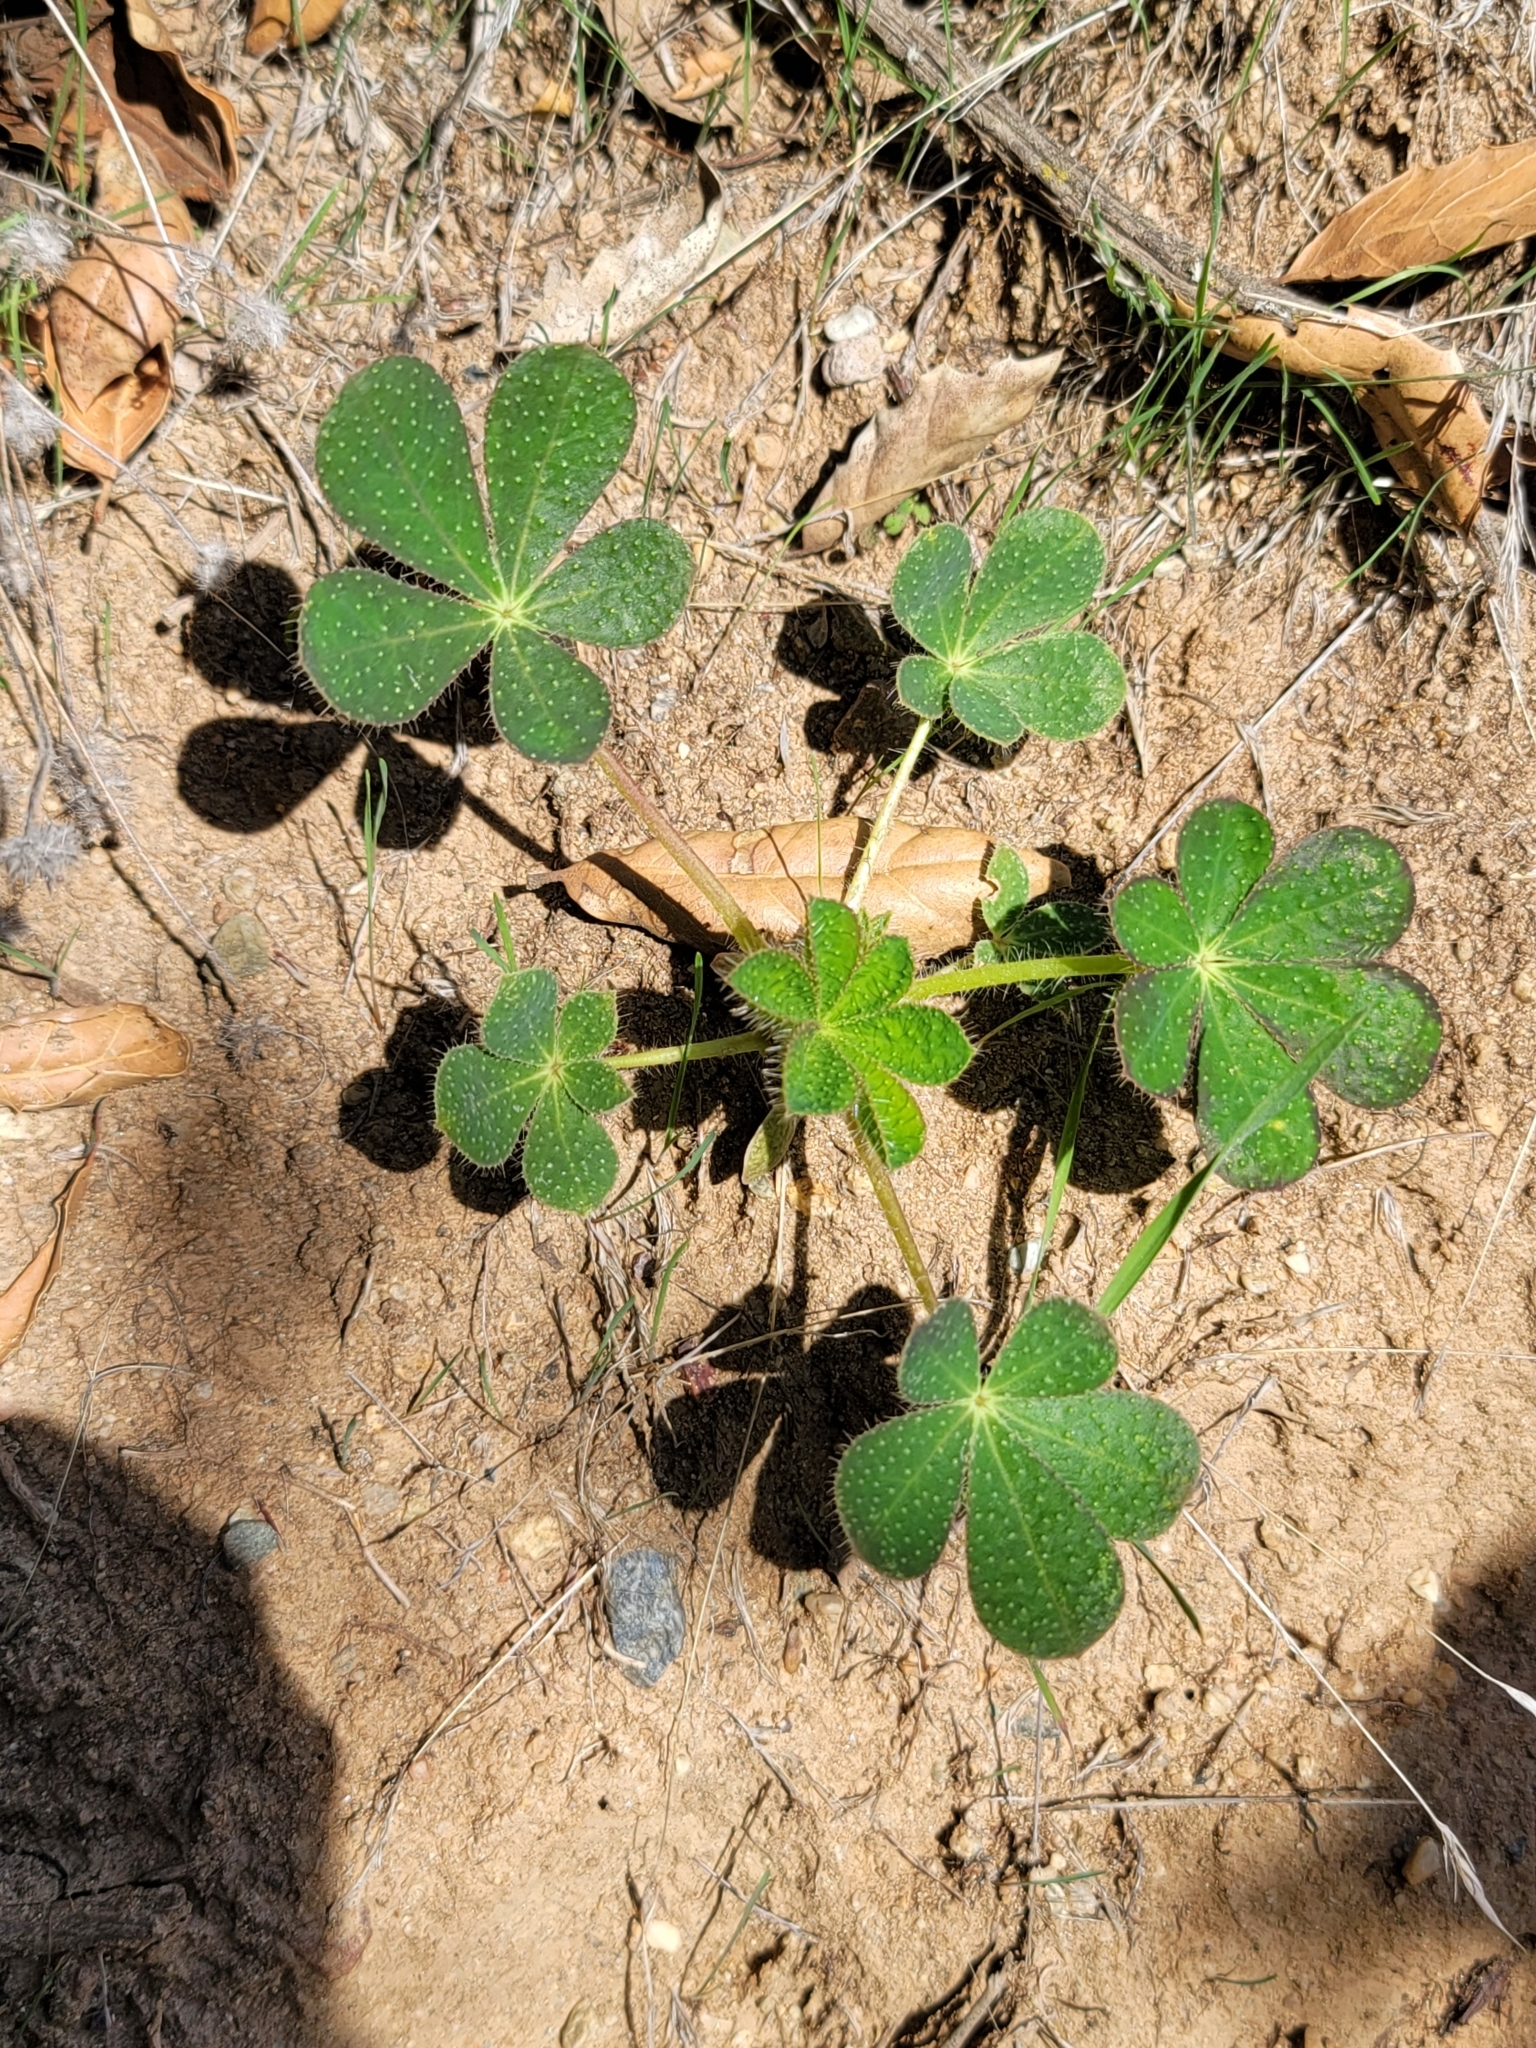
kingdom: Plantae
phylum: Tracheophyta
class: Magnoliopsida
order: Fabales
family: Fabaceae
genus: Lupinus
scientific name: Lupinus hirsutissimus
